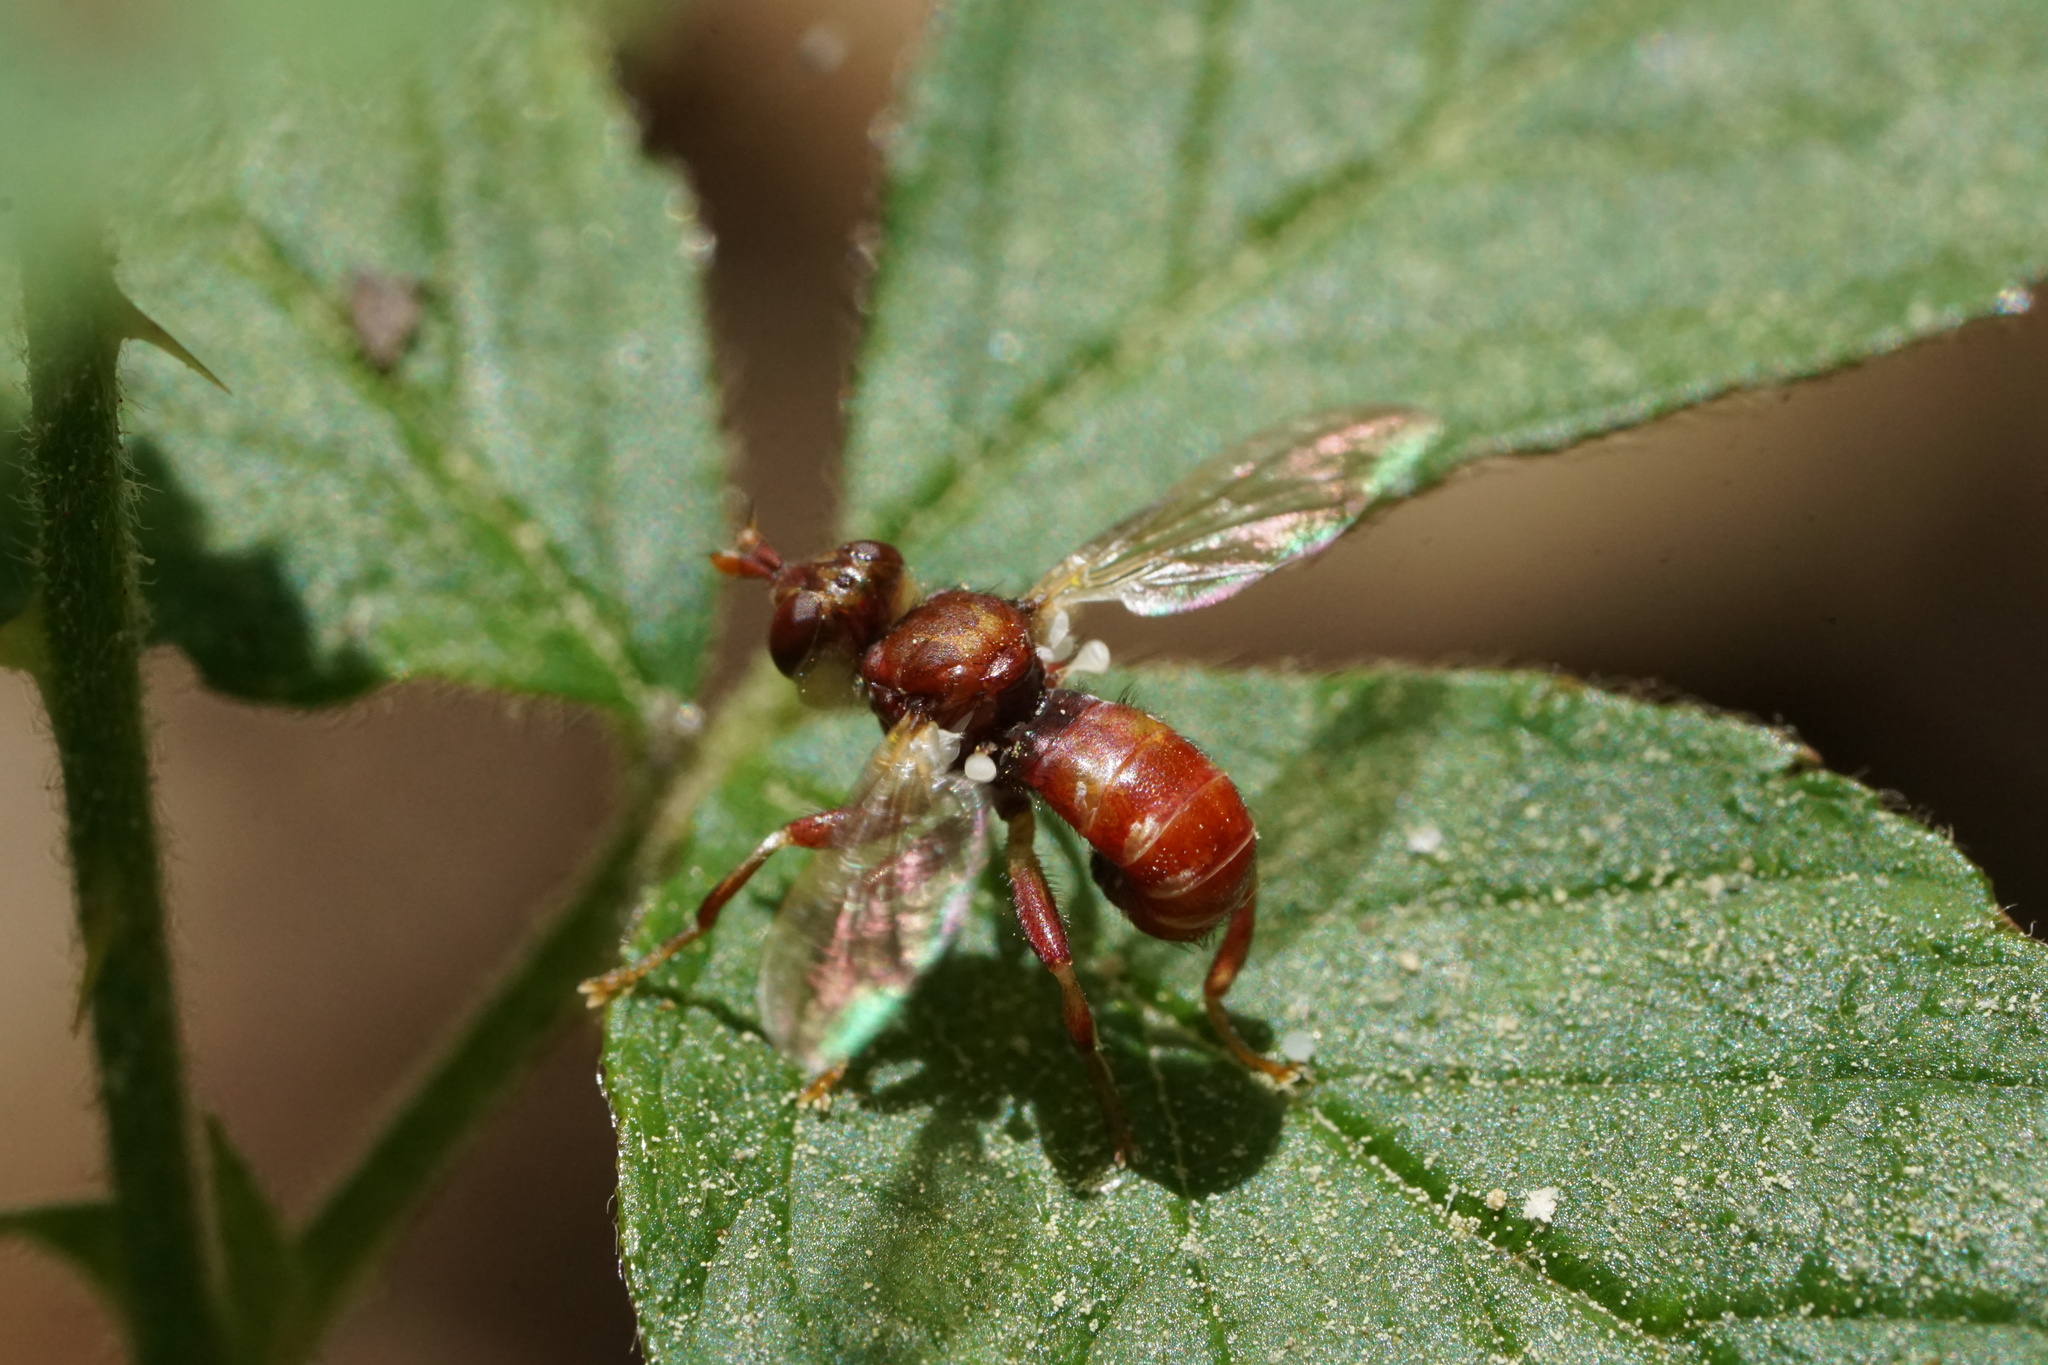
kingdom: Animalia
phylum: Arthropoda
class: Insecta
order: Diptera
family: Conopidae
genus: Myopa
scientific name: Myopa clausa
